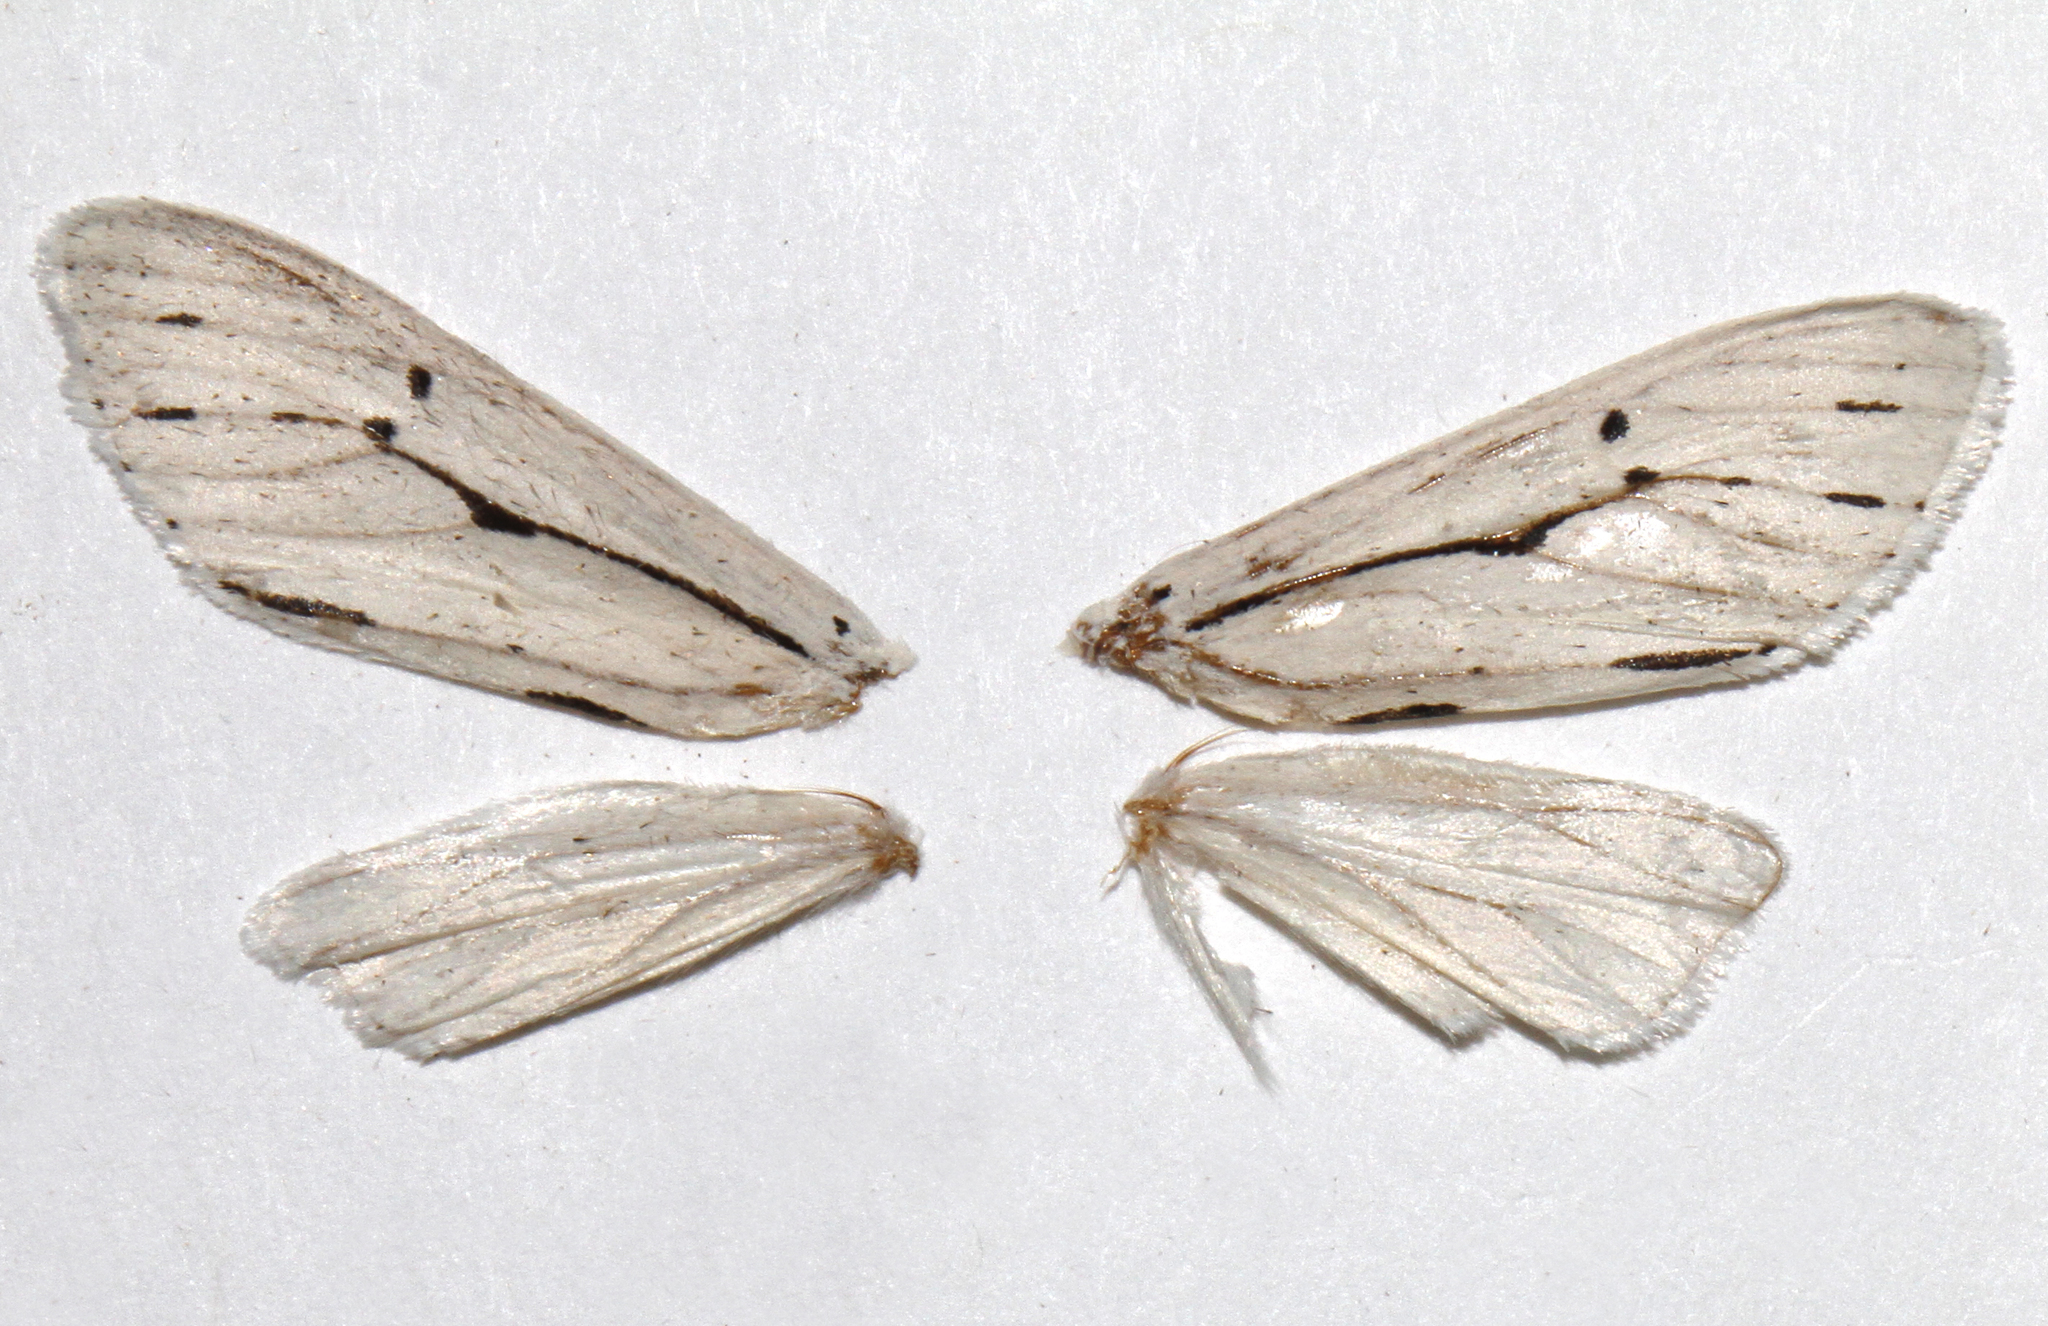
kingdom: Animalia
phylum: Arthropoda
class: Insecta
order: Lepidoptera
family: Erebidae
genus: Ectypia
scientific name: Ectypia mexicana
